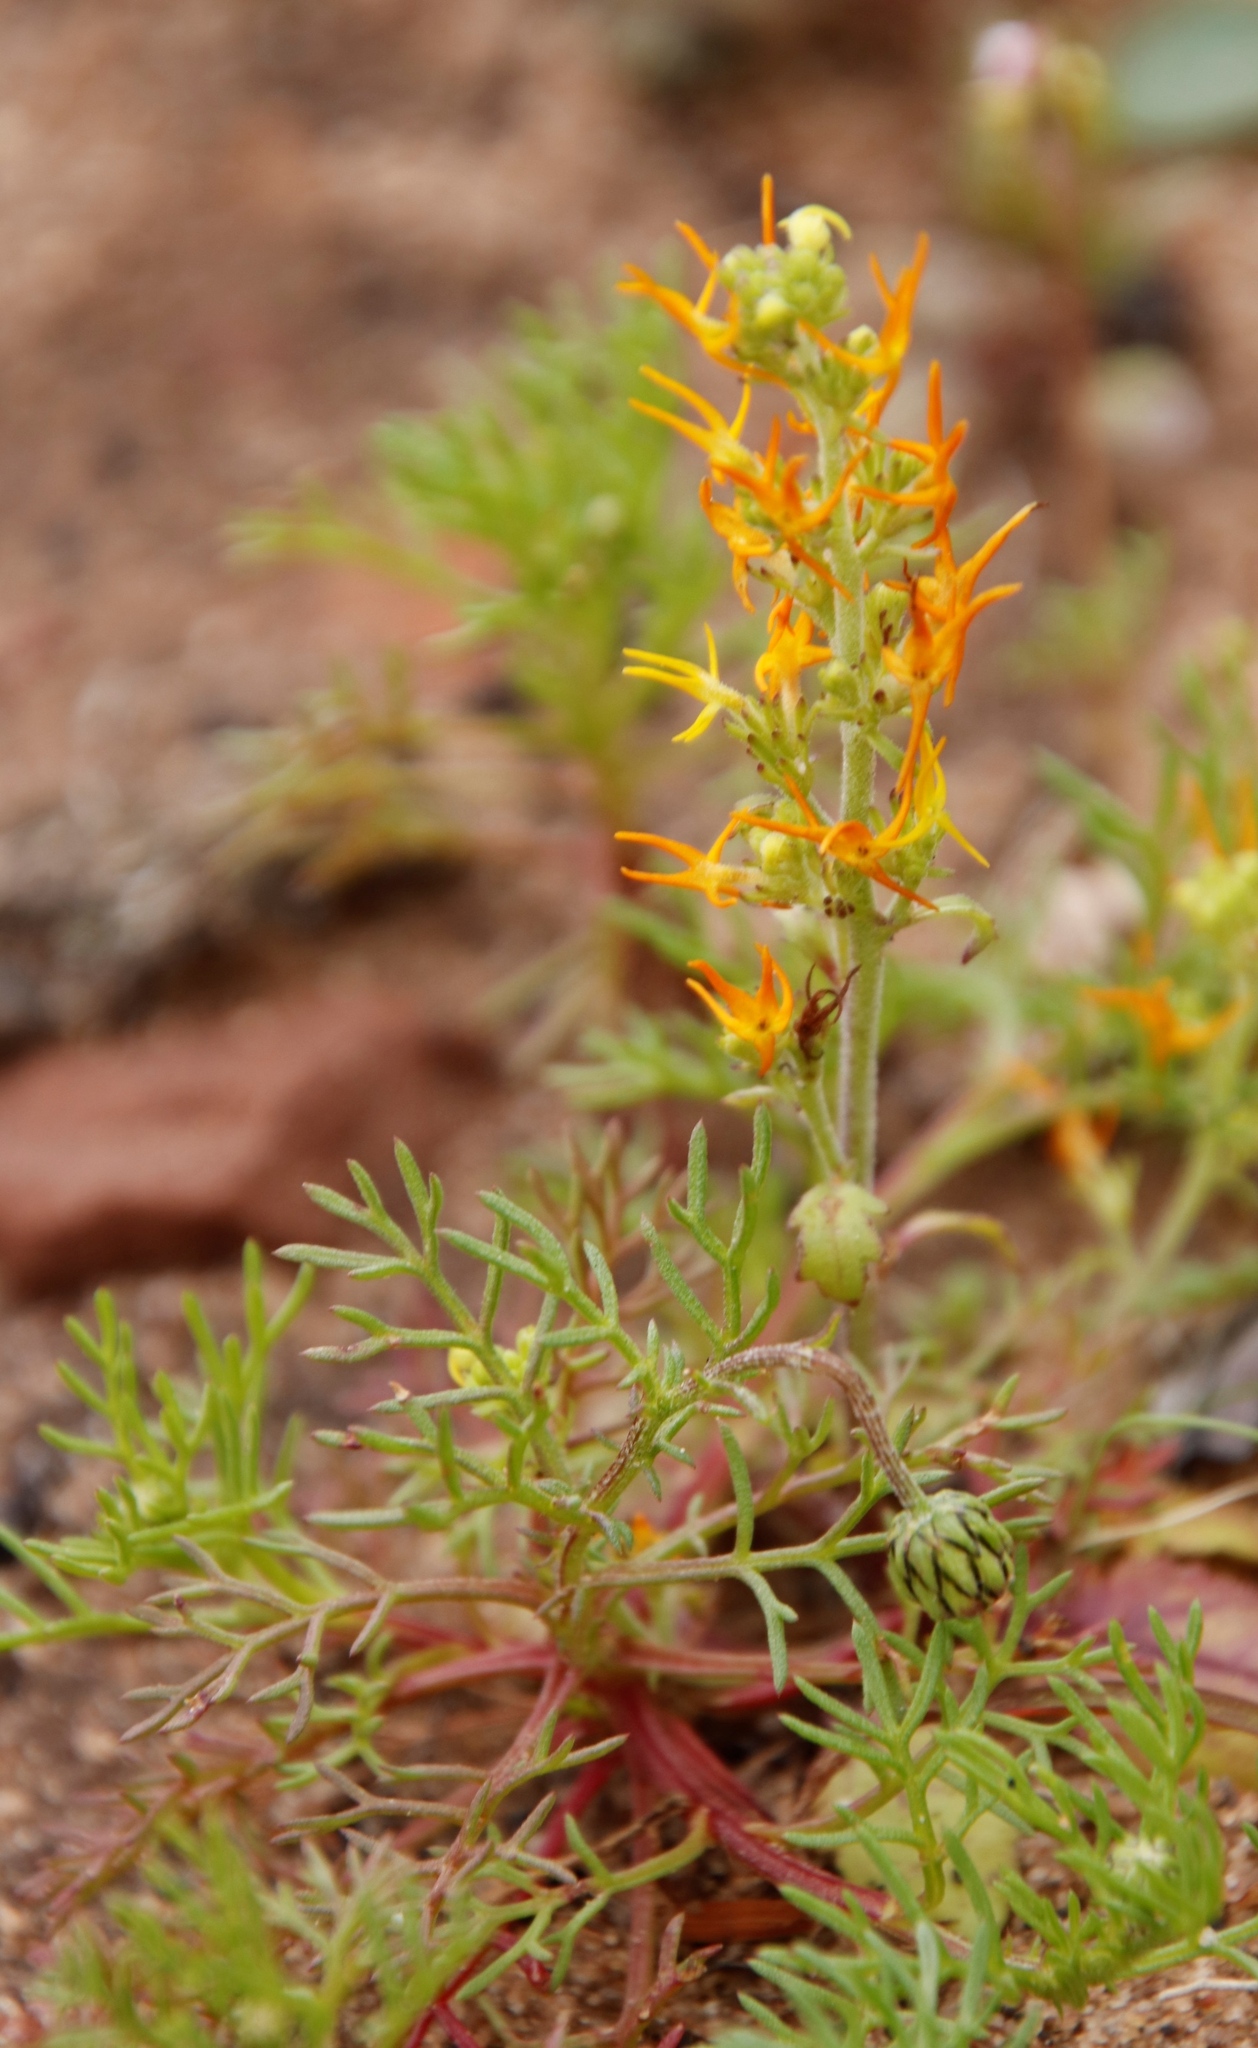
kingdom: Plantae
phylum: Tracheophyta
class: Magnoliopsida
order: Lamiales
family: Scrophulariaceae
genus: Manulea
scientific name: Manulea cheiranthus
